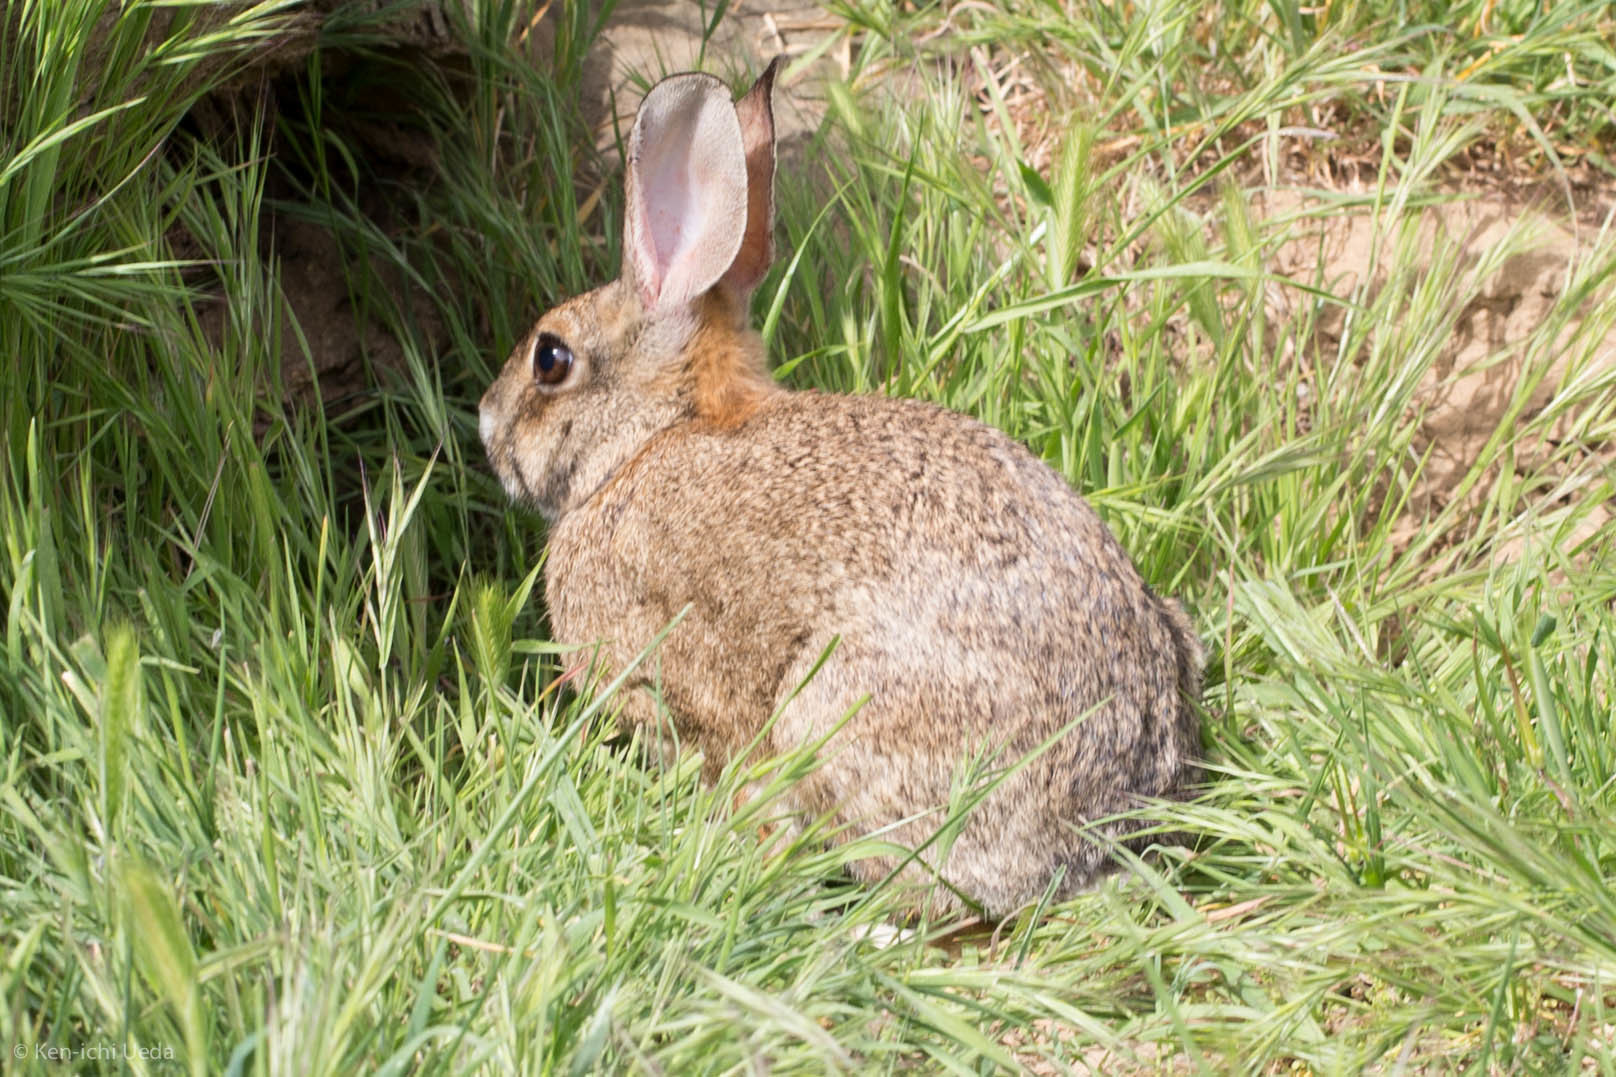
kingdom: Animalia
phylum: Chordata
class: Mammalia
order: Lagomorpha
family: Leporidae
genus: Sylvilagus
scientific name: Sylvilagus audubonii
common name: Desert cottontail
